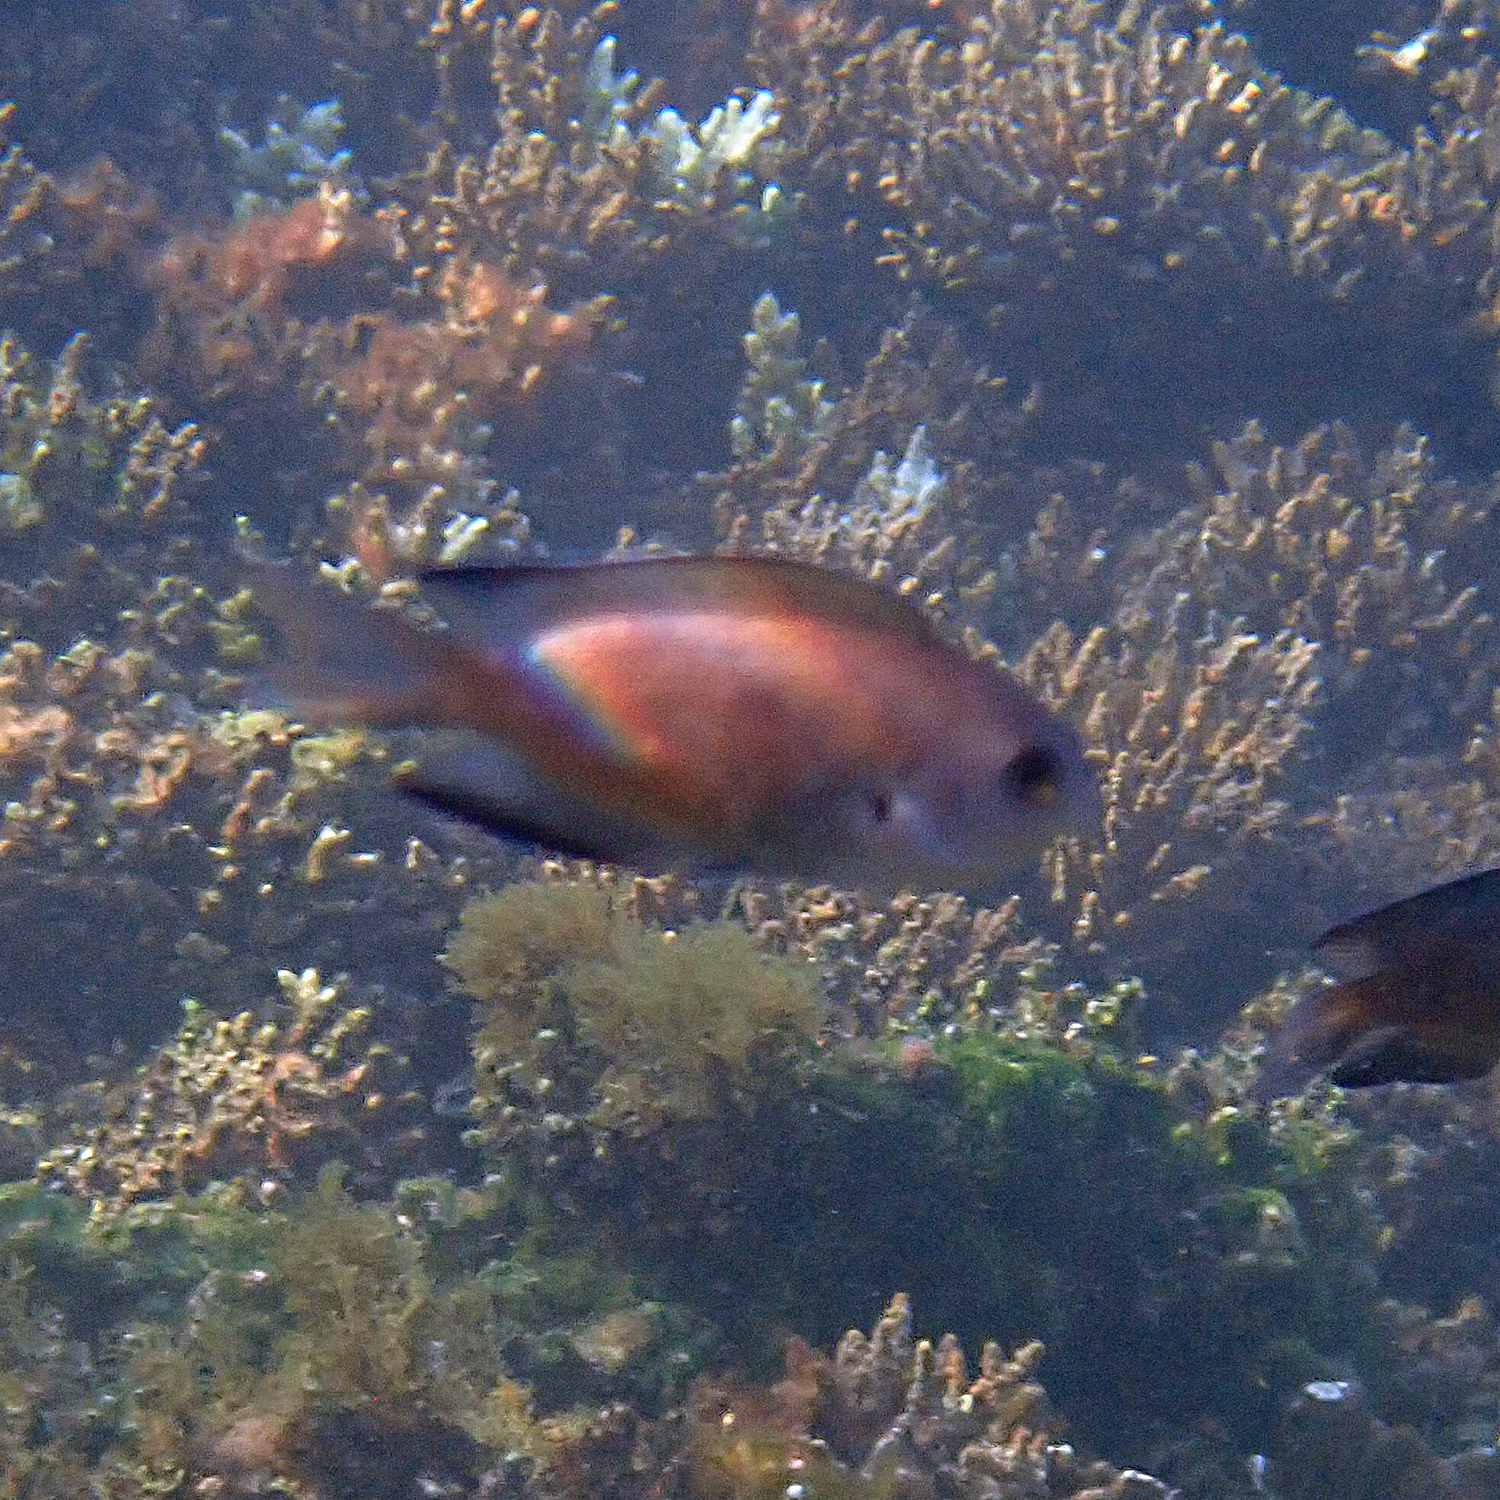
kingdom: Animalia
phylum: Chordata
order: Perciformes
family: Pomacentridae
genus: Chrysiptera
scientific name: Chrysiptera notialis
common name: Southern demoiselle
